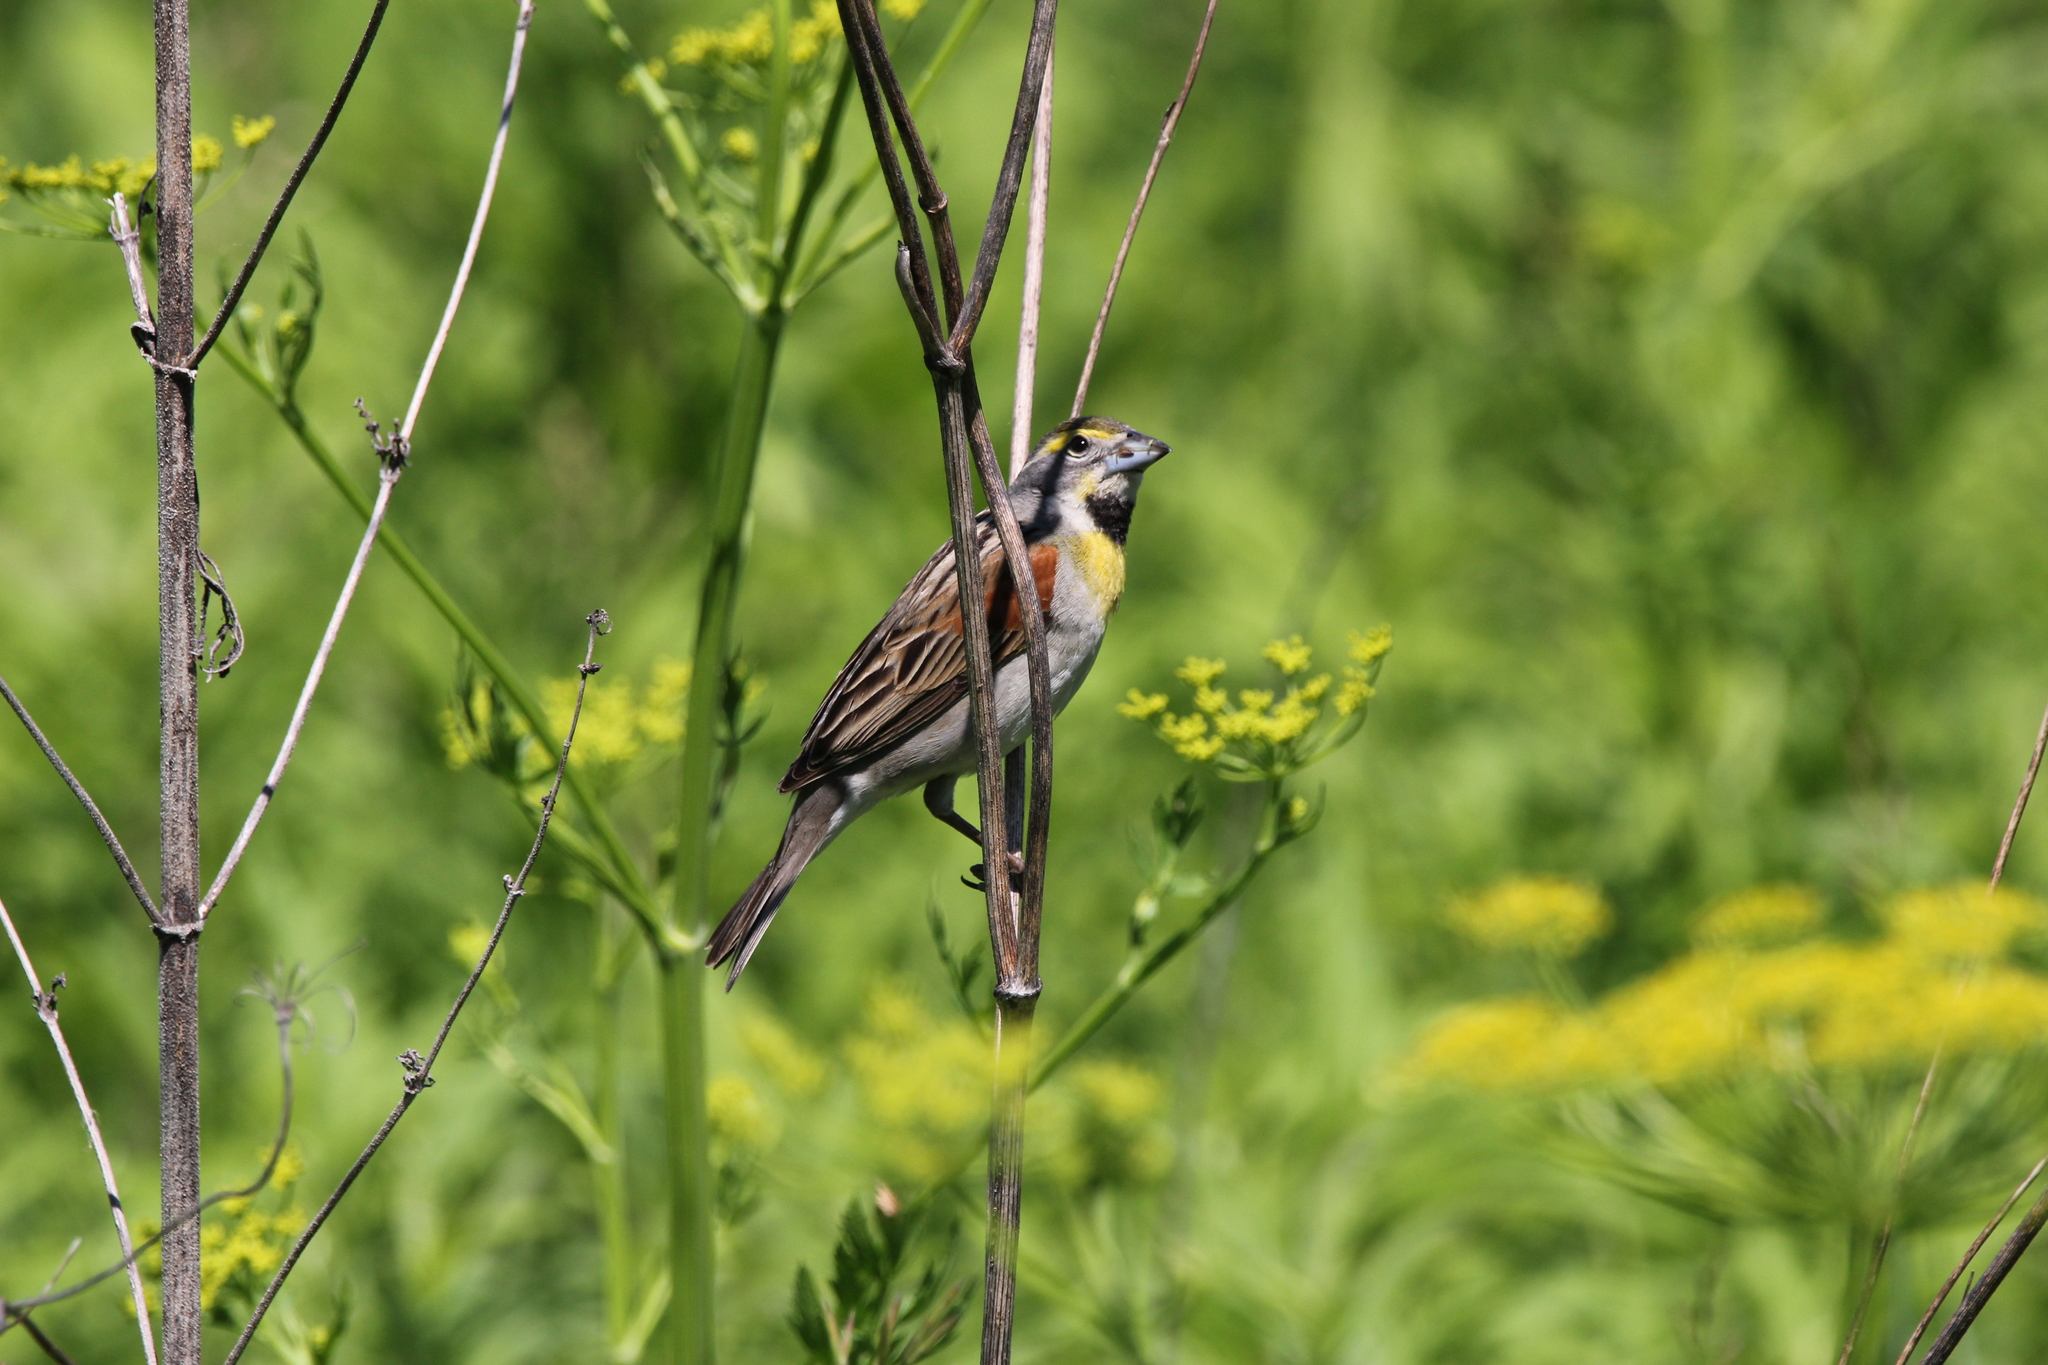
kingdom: Animalia
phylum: Chordata
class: Aves
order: Passeriformes
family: Cardinalidae
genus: Spiza
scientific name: Spiza americana
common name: Dickcissel
